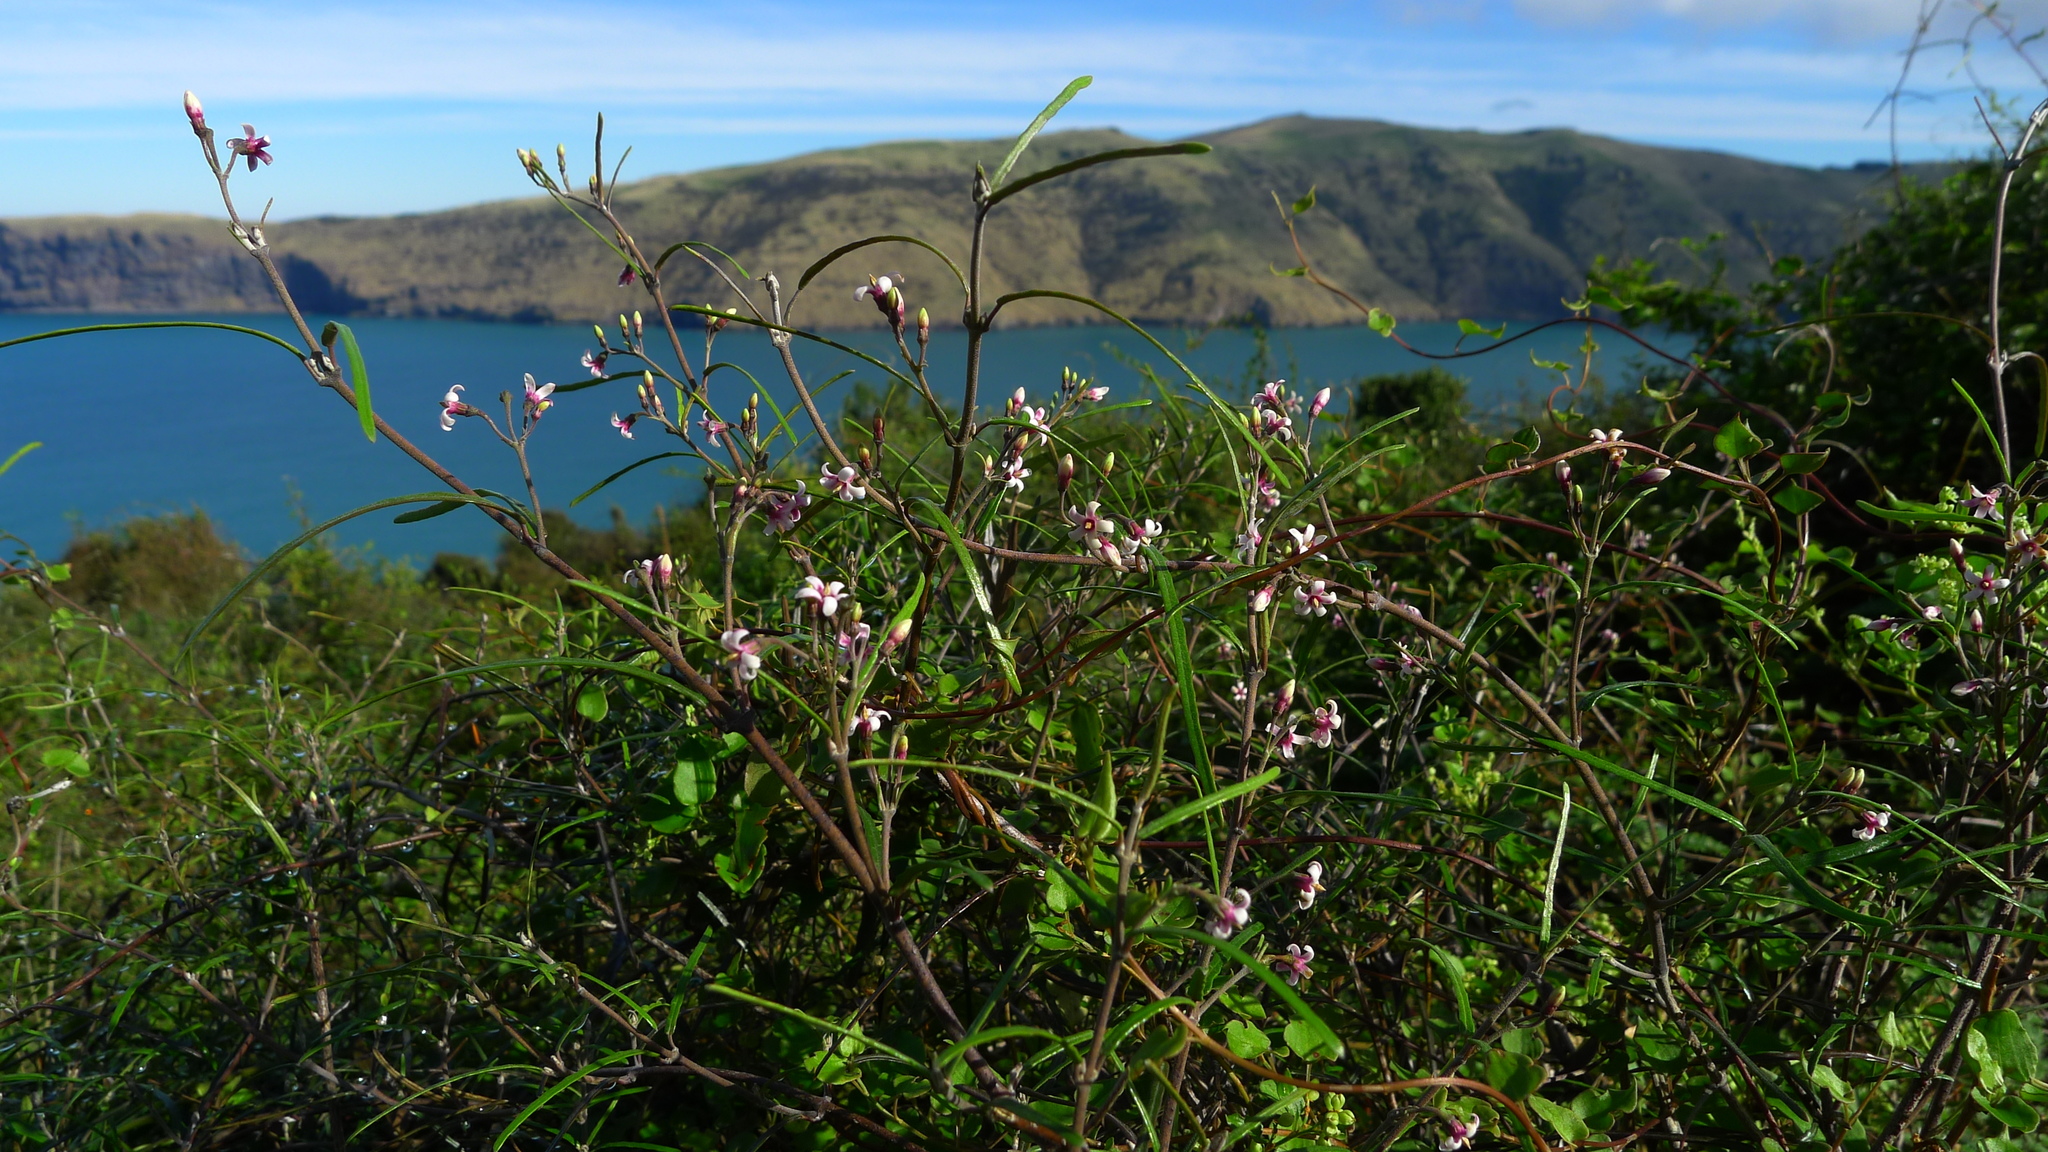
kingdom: Plantae
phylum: Tracheophyta
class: Magnoliopsida
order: Gentianales
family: Apocynaceae
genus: Parsonsia
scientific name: Parsonsia capsularis
